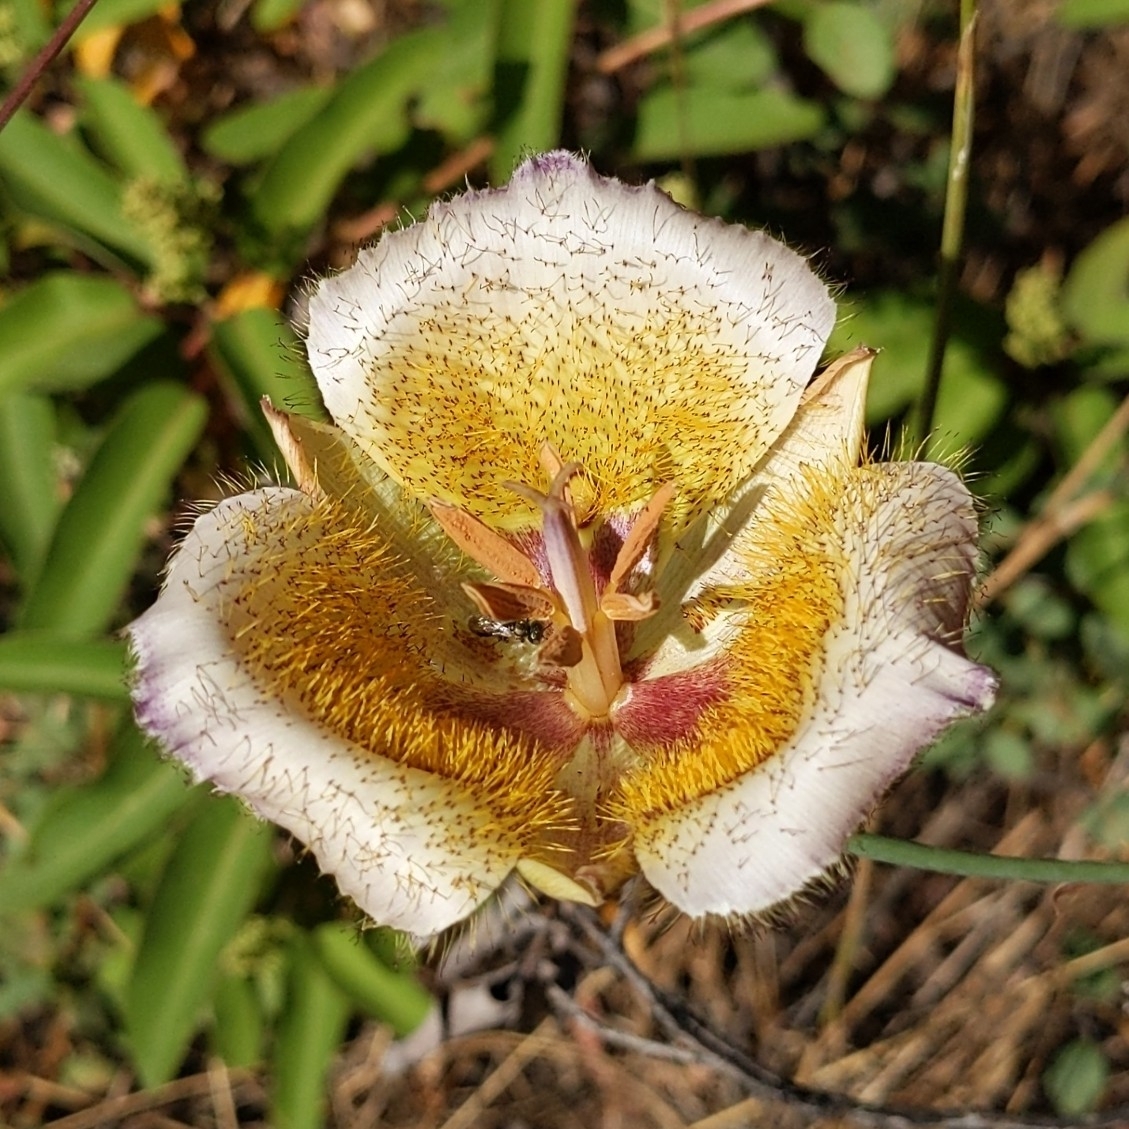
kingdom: Plantae
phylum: Tracheophyta
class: Liliopsida
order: Liliales
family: Liliaceae
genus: Calochortus
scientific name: Calochortus weedii
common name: Weed's mariposa-lily
